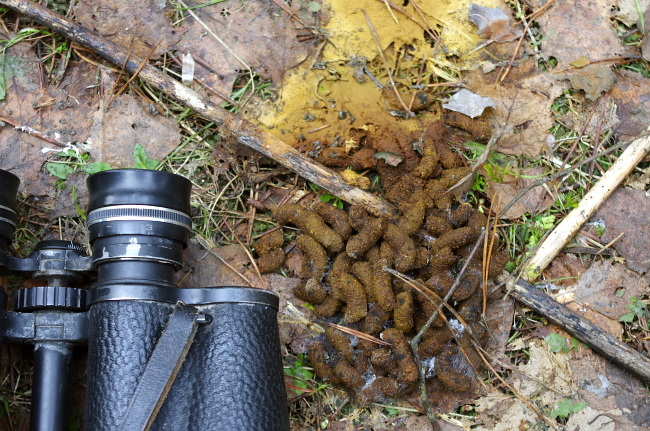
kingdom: Animalia
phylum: Chordata
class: Aves
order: Galliformes
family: Phasianidae
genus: Tetrastes
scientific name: Tetrastes bonasia
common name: Hazel grouse
